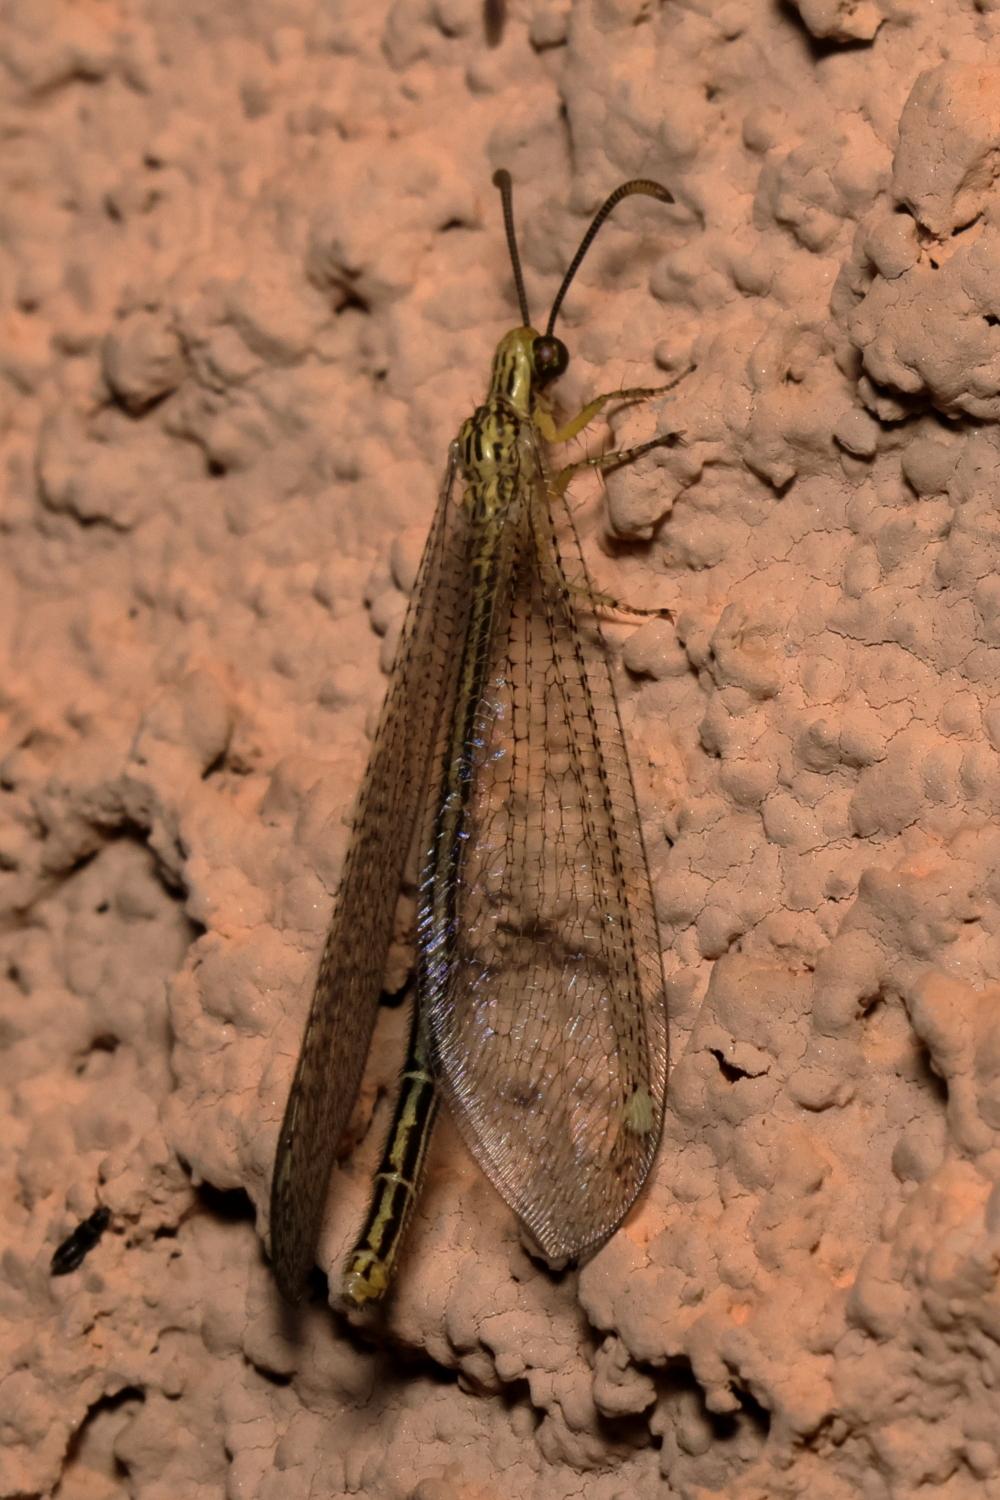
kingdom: Animalia
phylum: Arthropoda
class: Insecta
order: Neuroptera
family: Myrmeleontidae
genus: Brachynemurus
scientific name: Brachynemurus hubbardii
